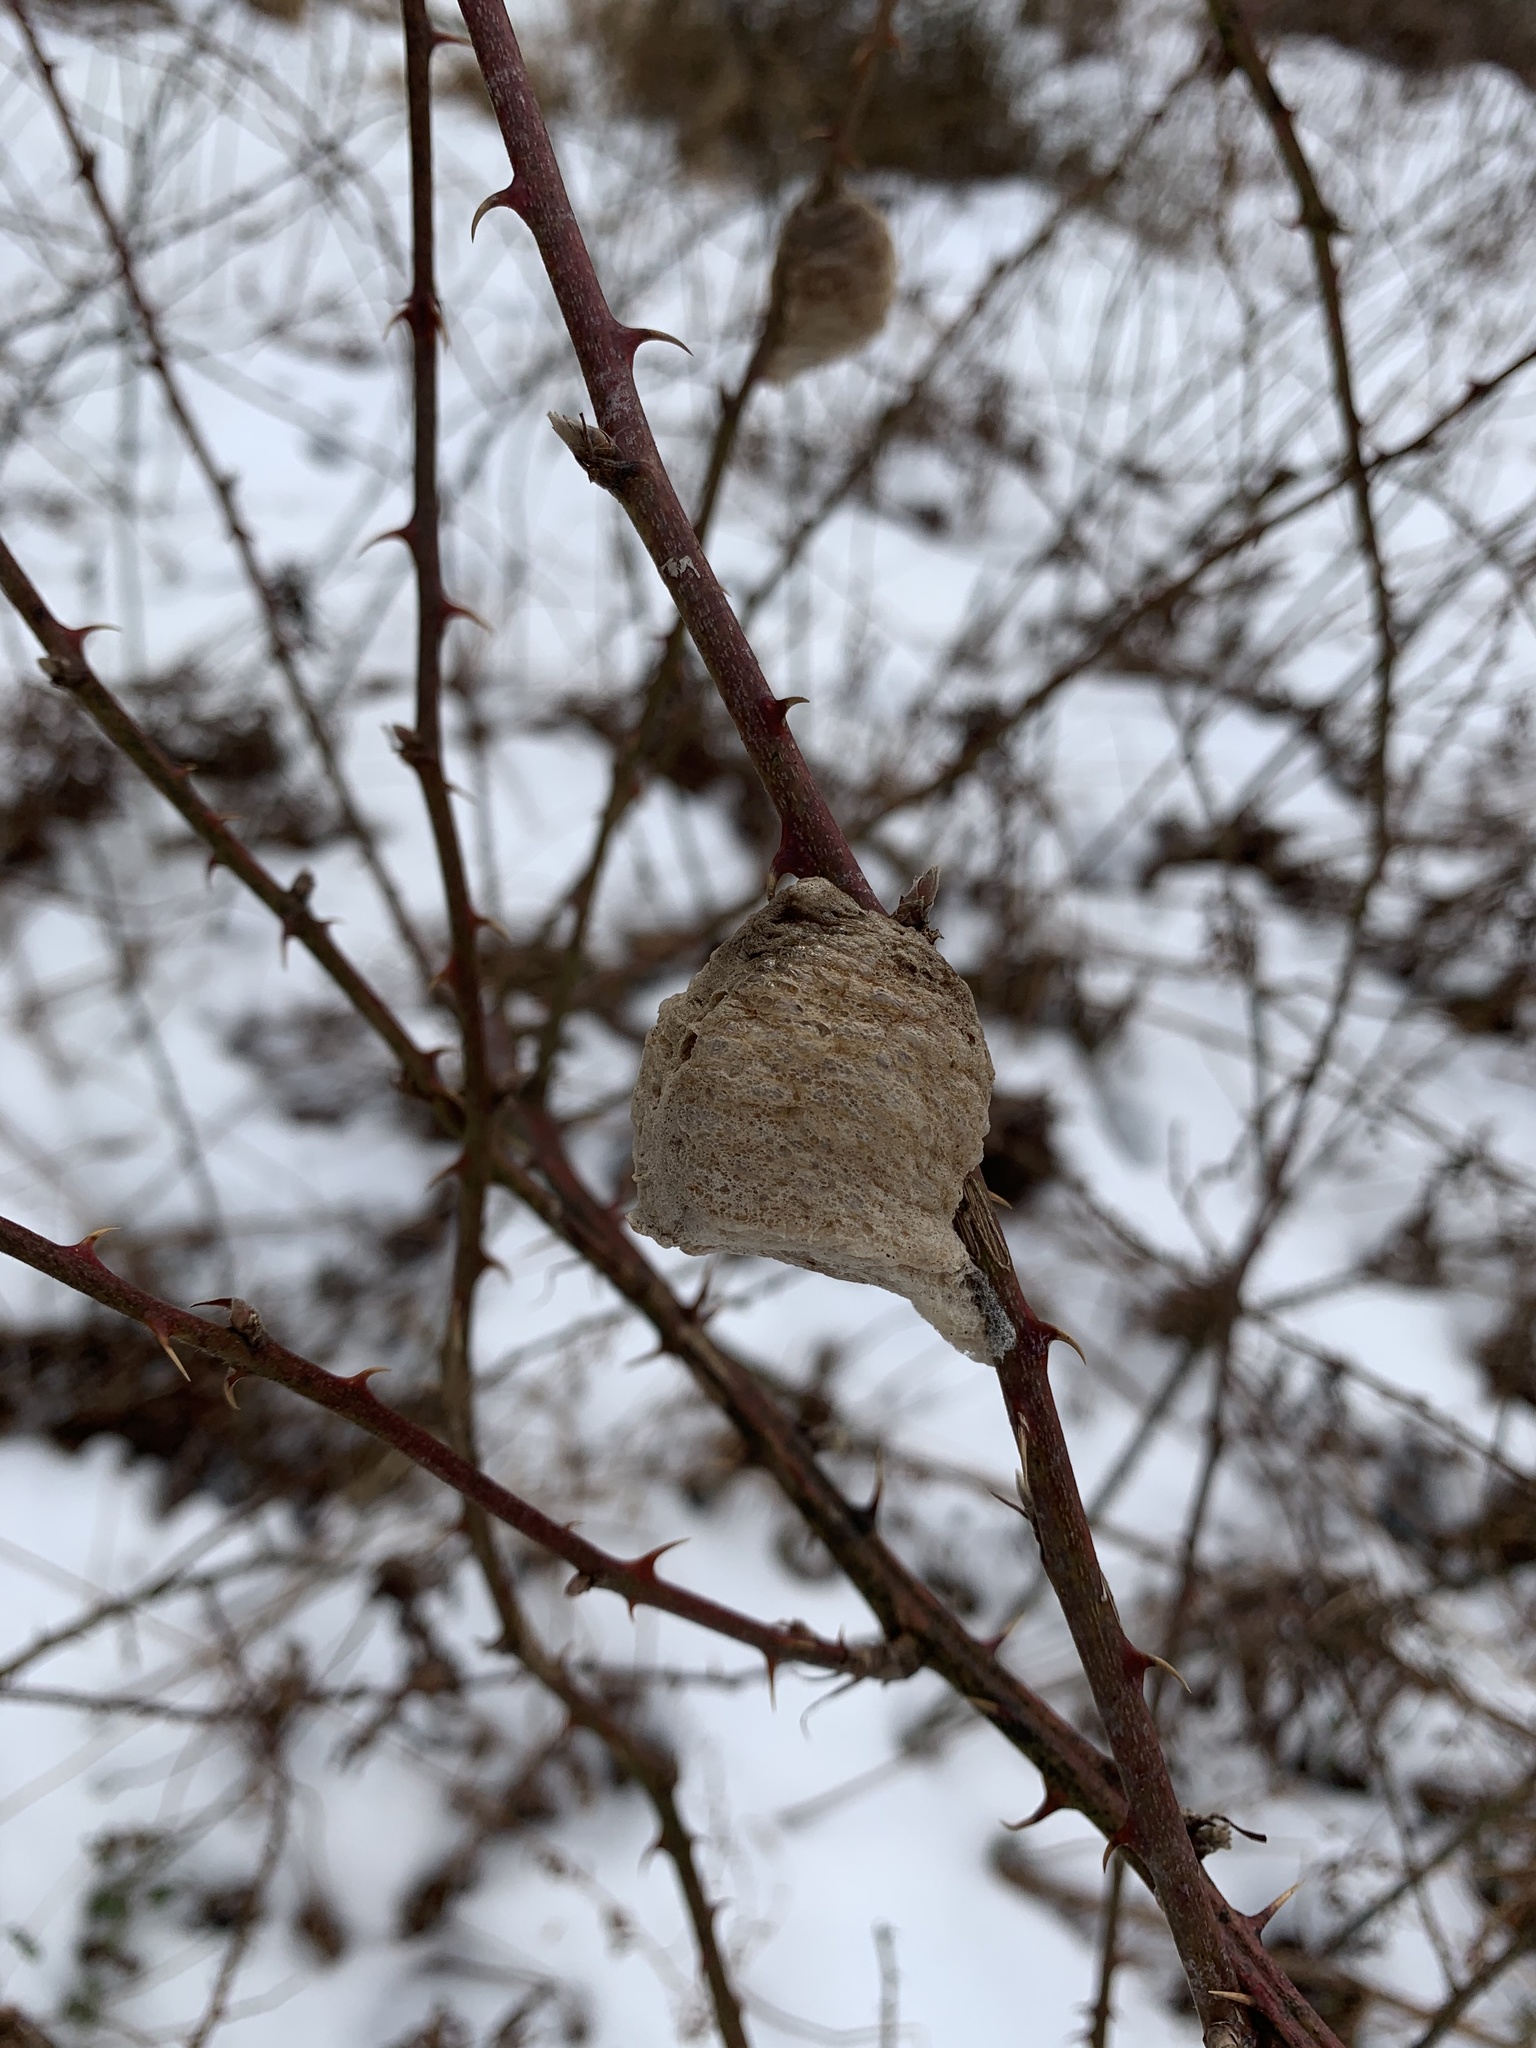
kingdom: Animalia
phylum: Arthropoda
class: Insecta
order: Mantodea
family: Mantidae
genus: Tenodera
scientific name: Tenodera sinensis
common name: Chinese mantis
